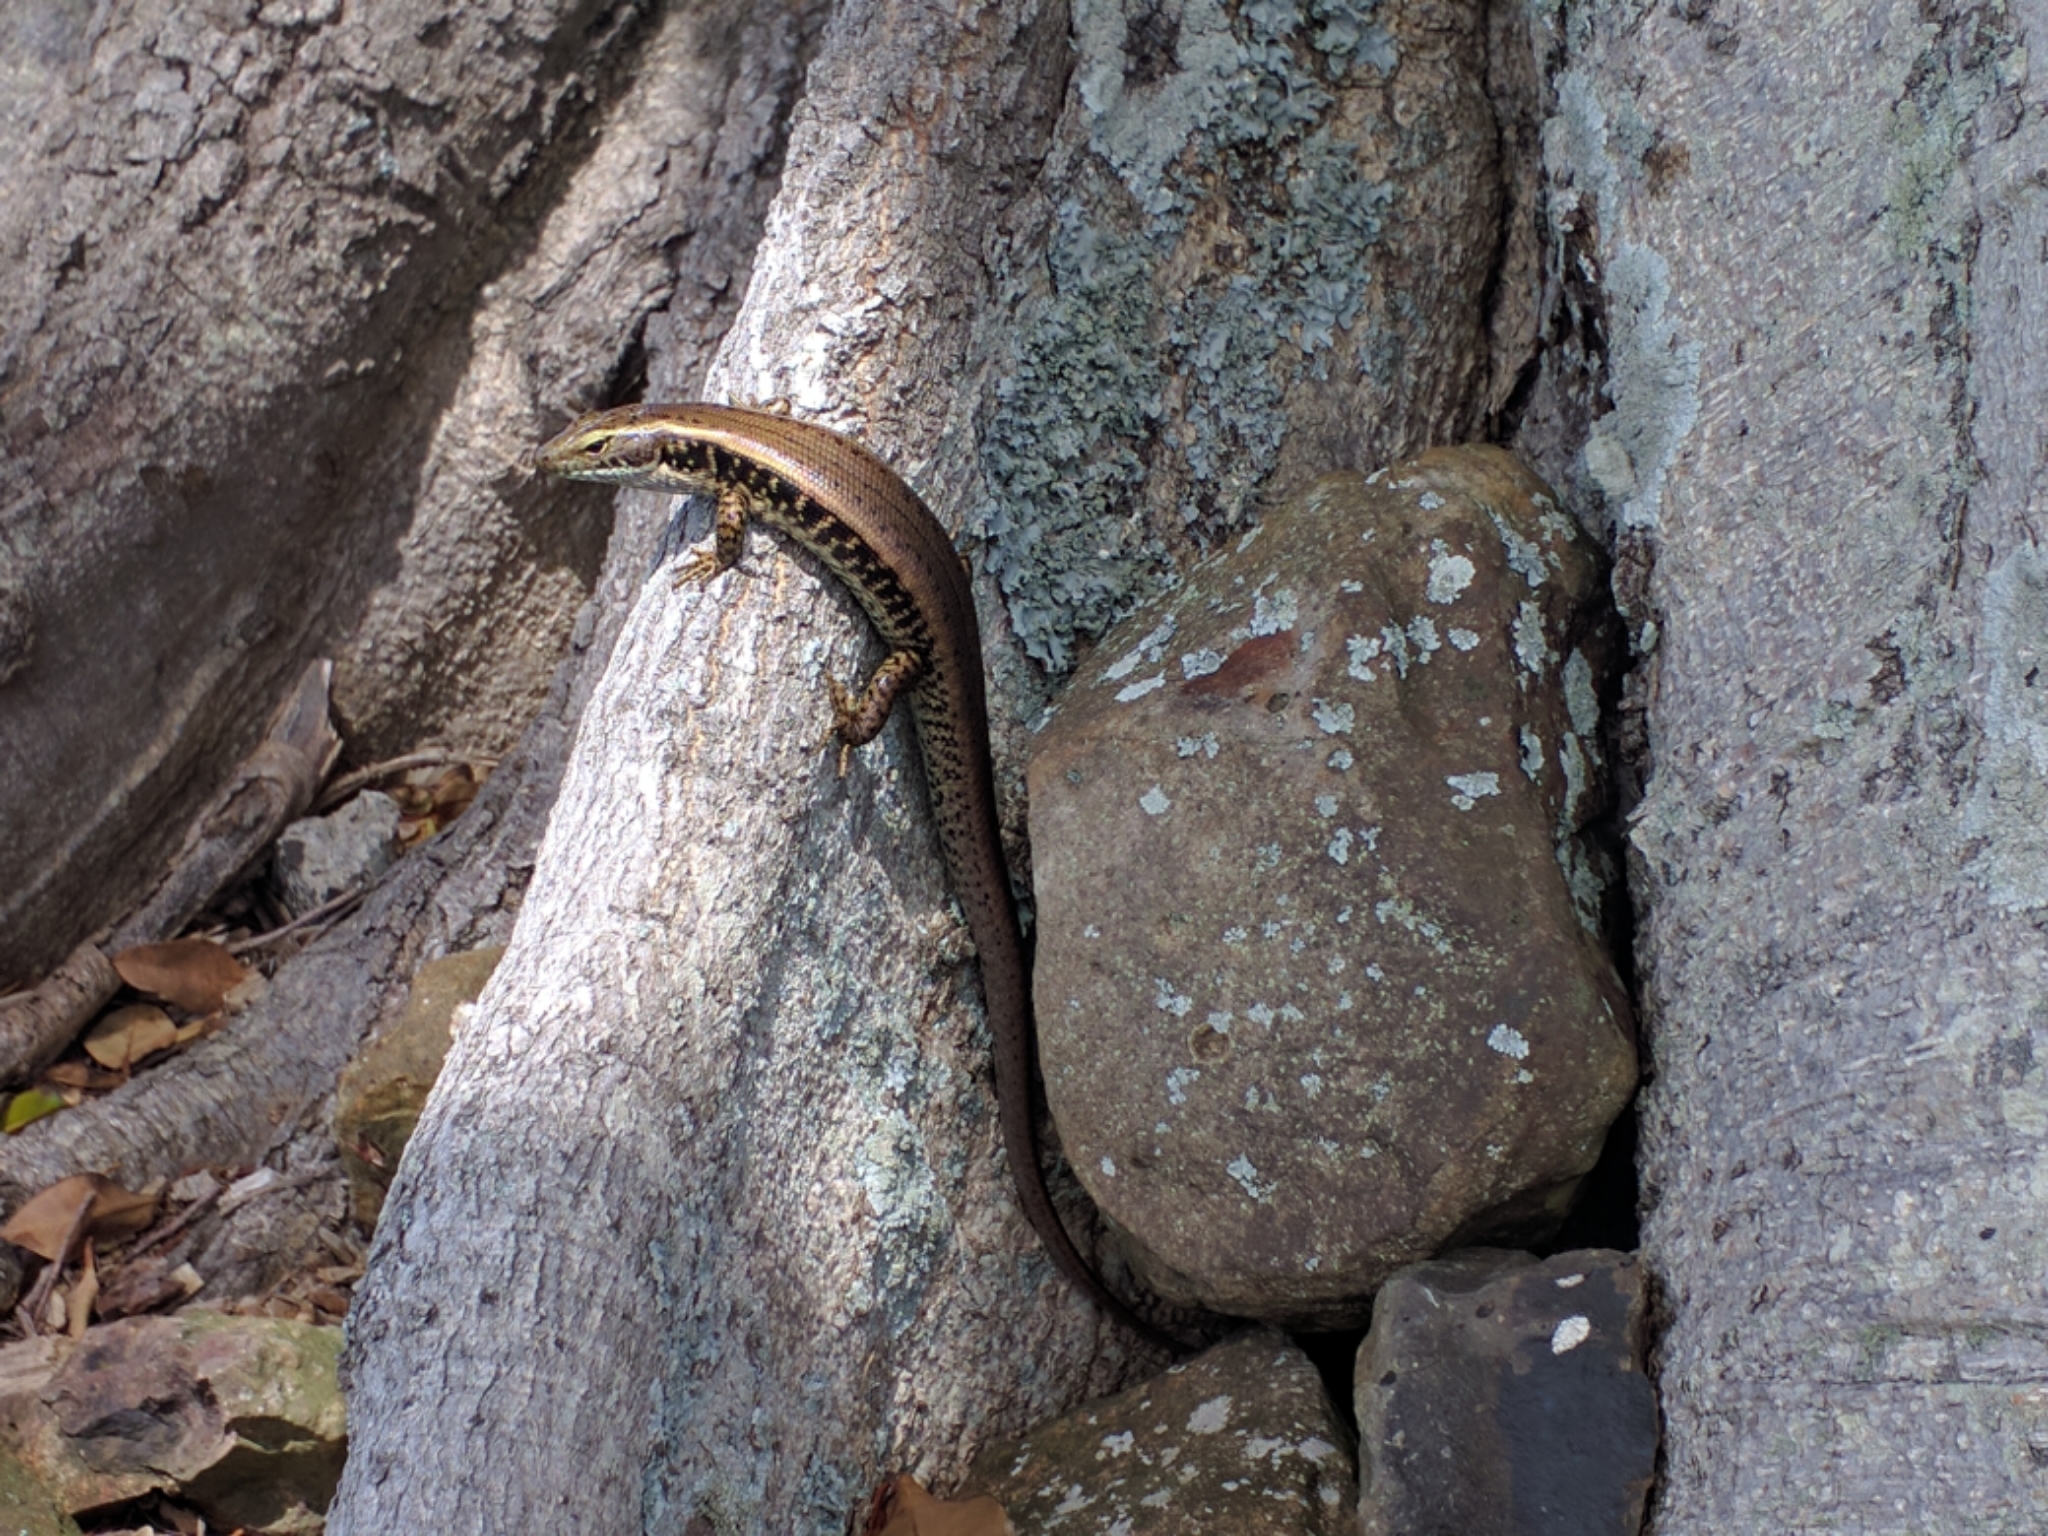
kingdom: Animalia
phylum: Chordata
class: Squamata
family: Scincidae
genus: Eulamprus
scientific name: Eulamprus quoyii
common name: Eastern water skink
